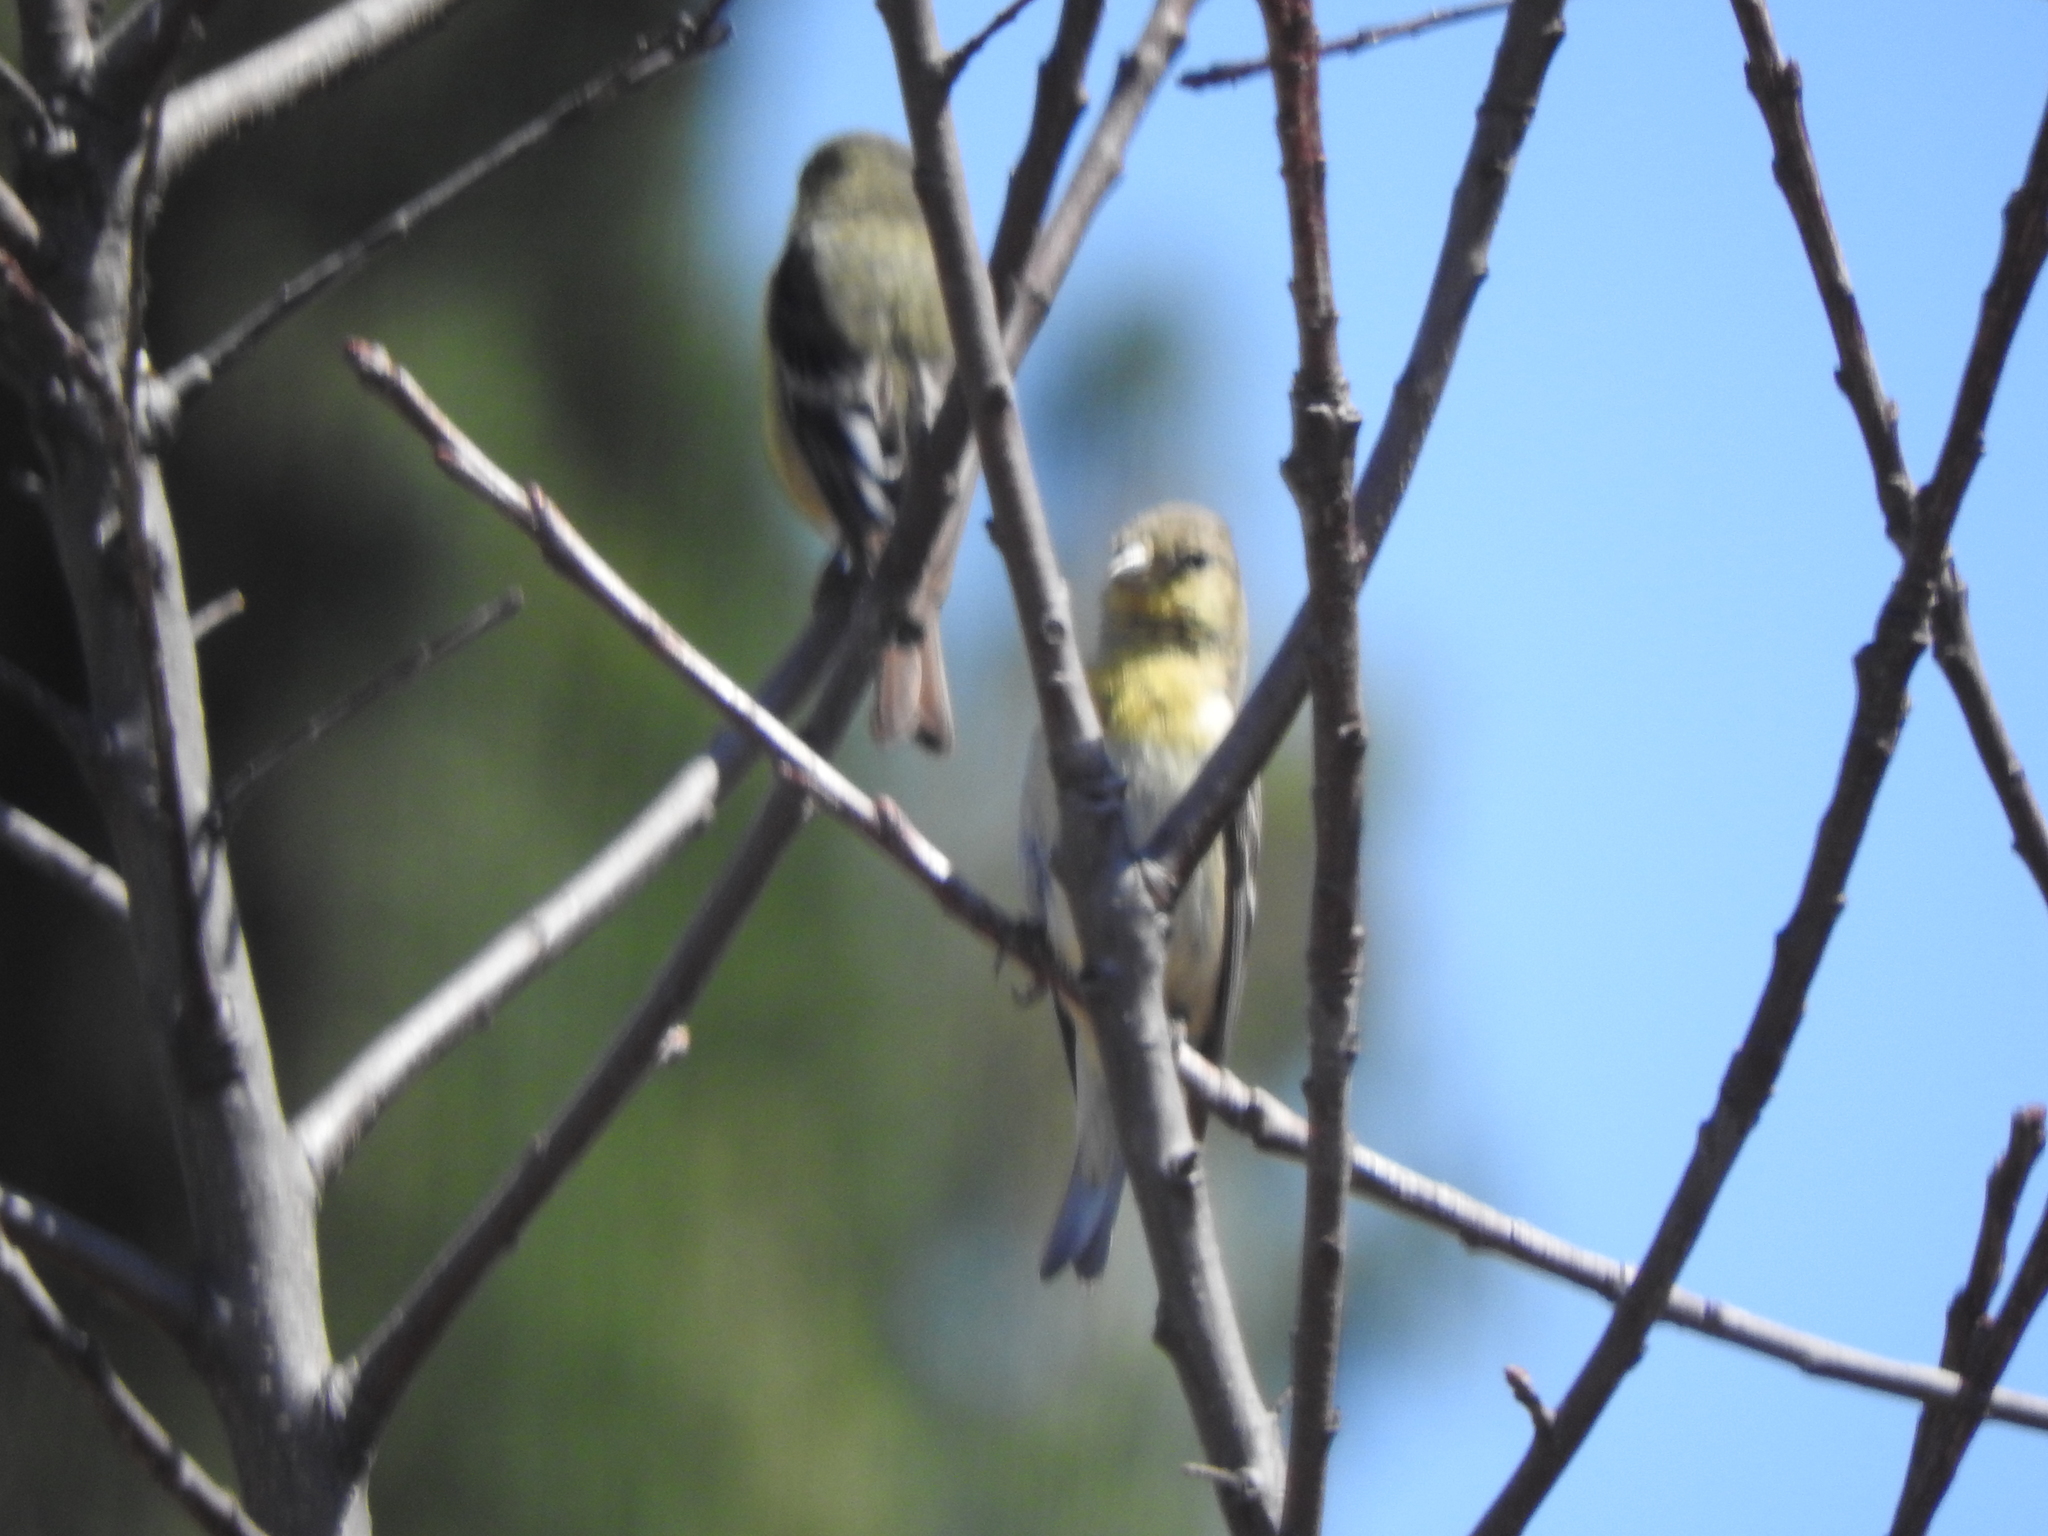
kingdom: Animalia
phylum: Chordata
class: Aves
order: Passeriformes
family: Fringillidae
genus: Spinus
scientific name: Spinus psaltria
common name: Lesser goldfinch
